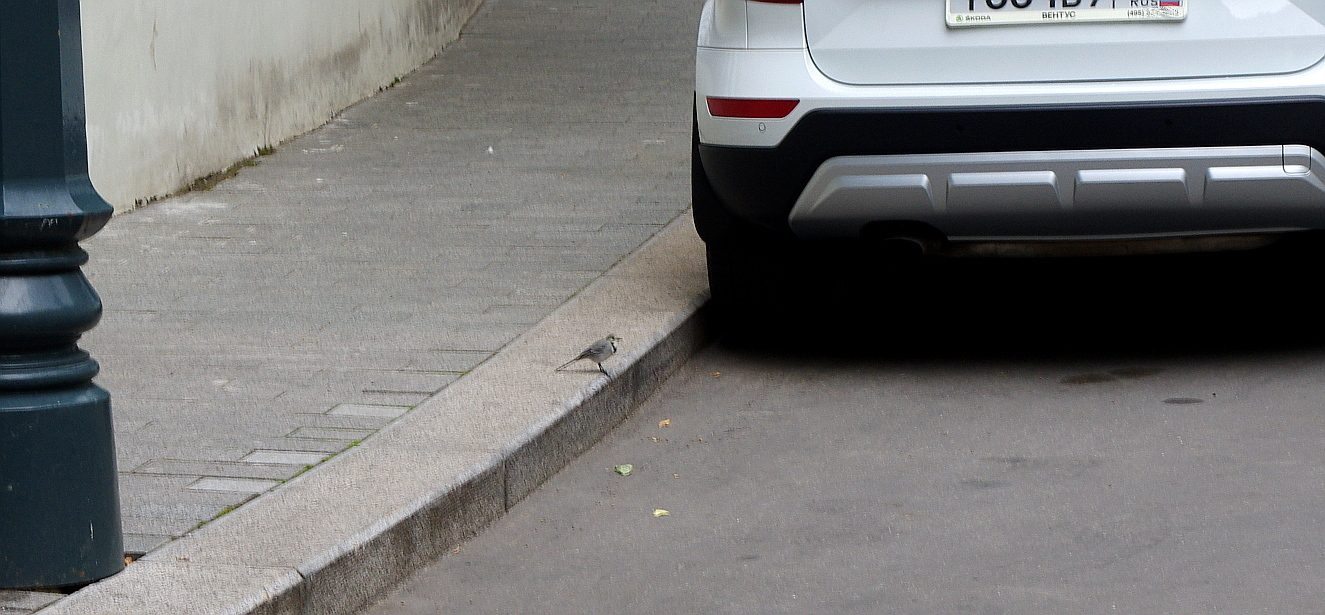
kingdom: Animalia
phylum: Chordata
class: Aves
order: Passeriformes
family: Motacillidae
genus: Motacilla
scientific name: Motacilla alba
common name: White wagtail
